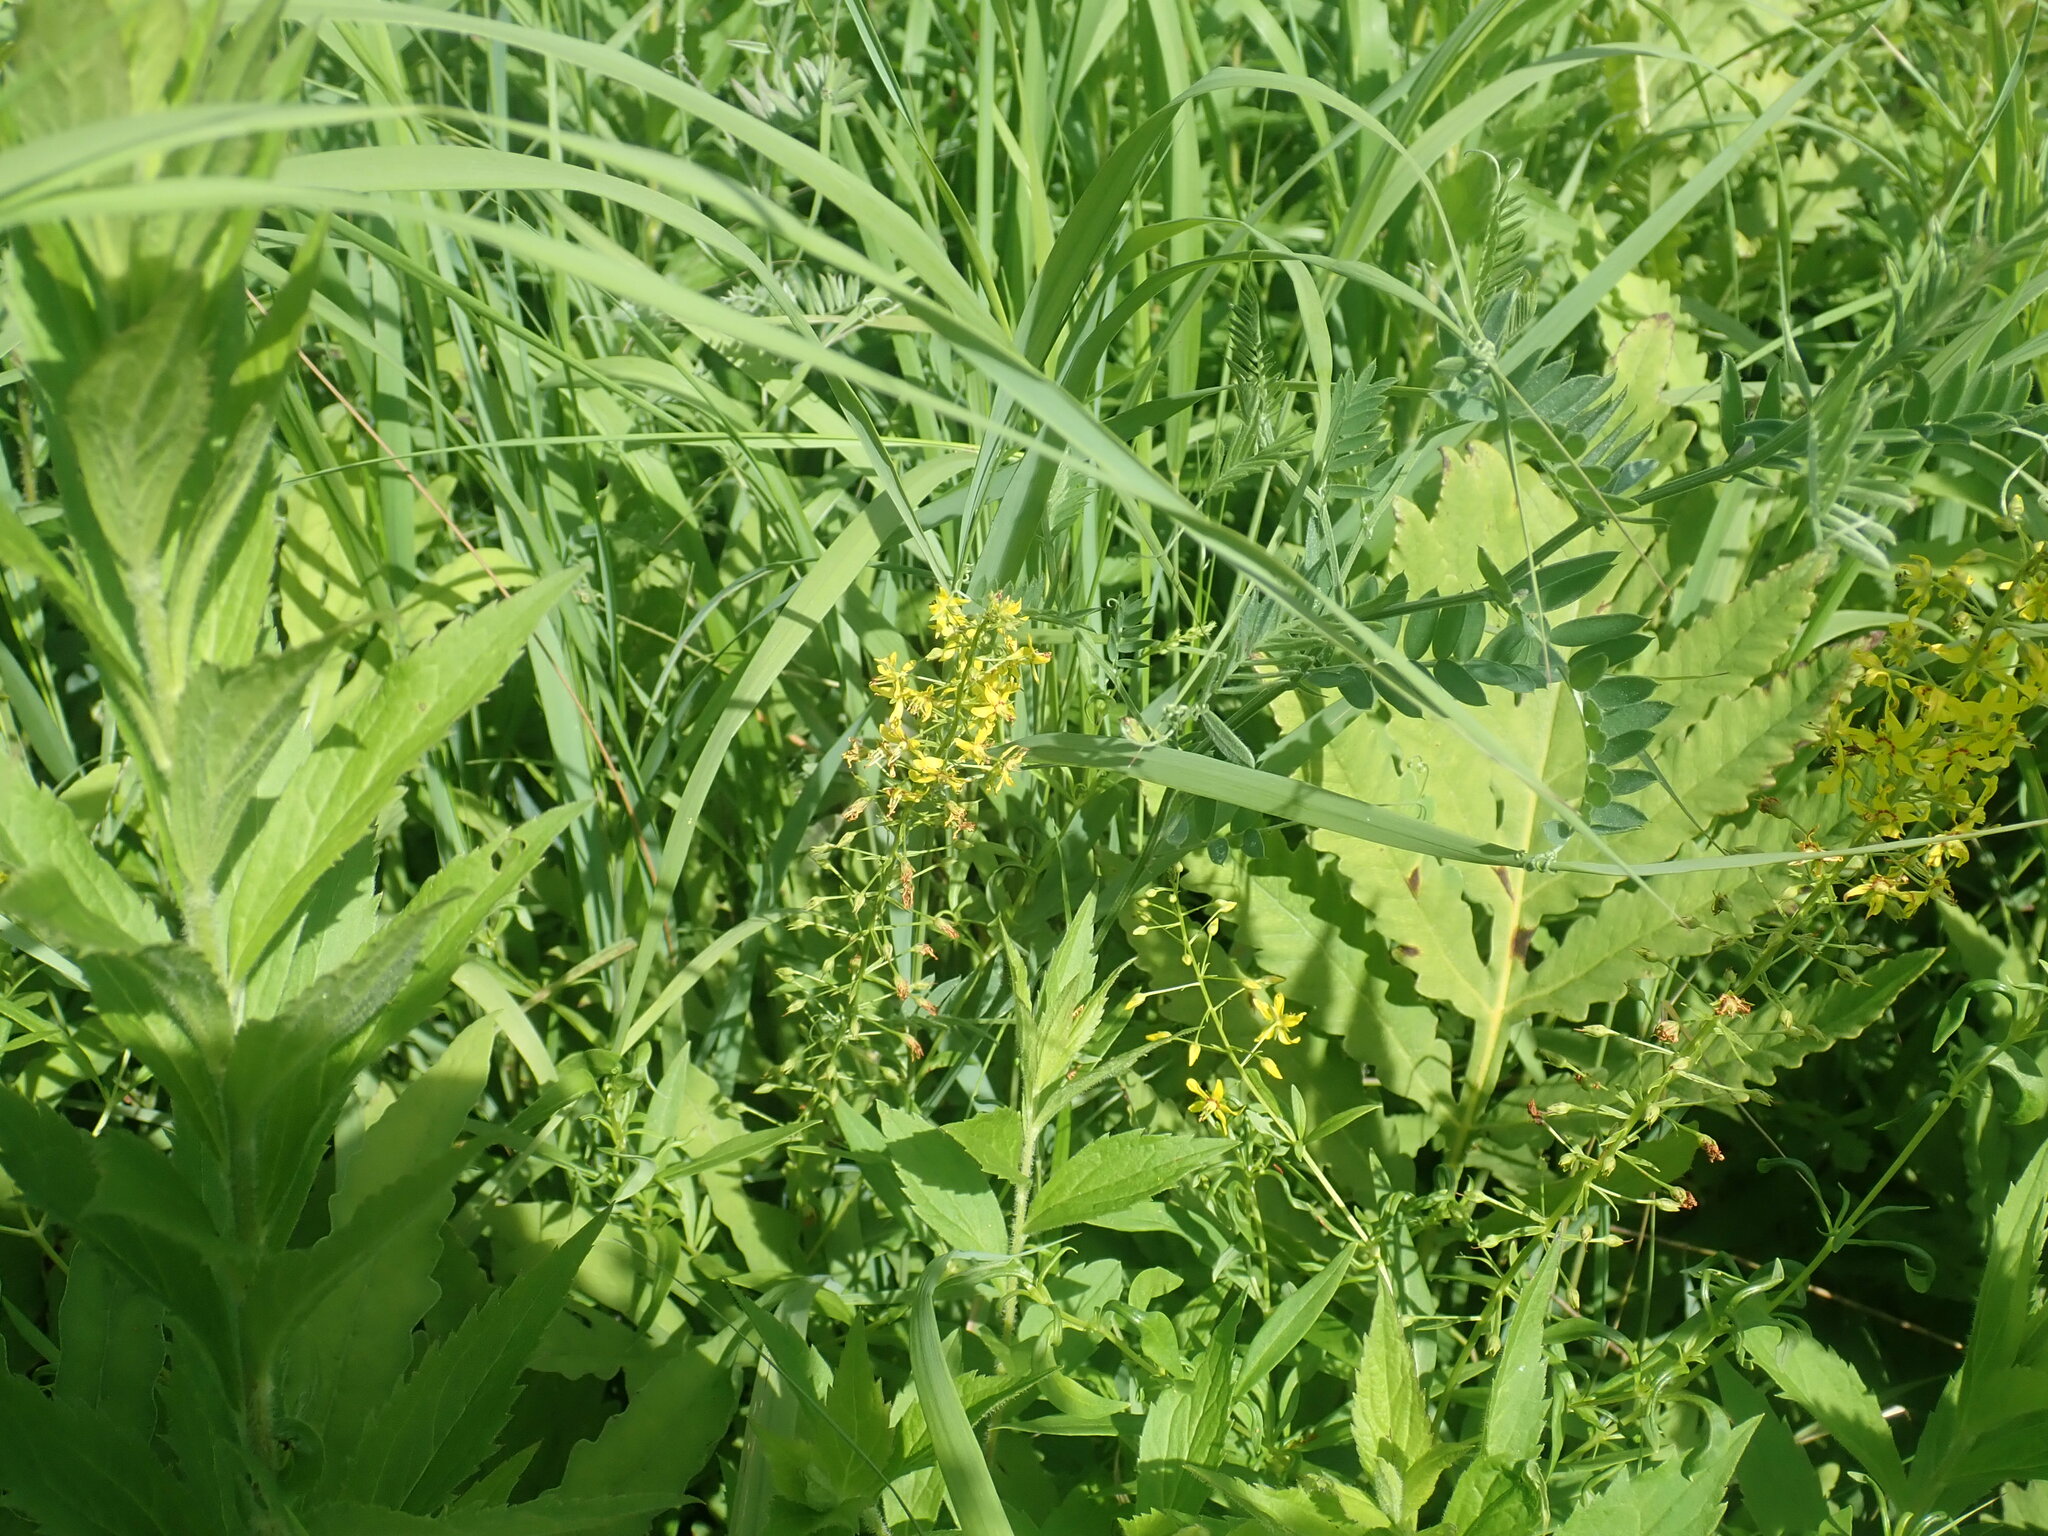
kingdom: Plantae
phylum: Tracheophyta
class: Magnoliopsida
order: Ericales
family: Primulaceae
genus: Lysimachia
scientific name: Lysimachia terrestris
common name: Lake loosestrife
